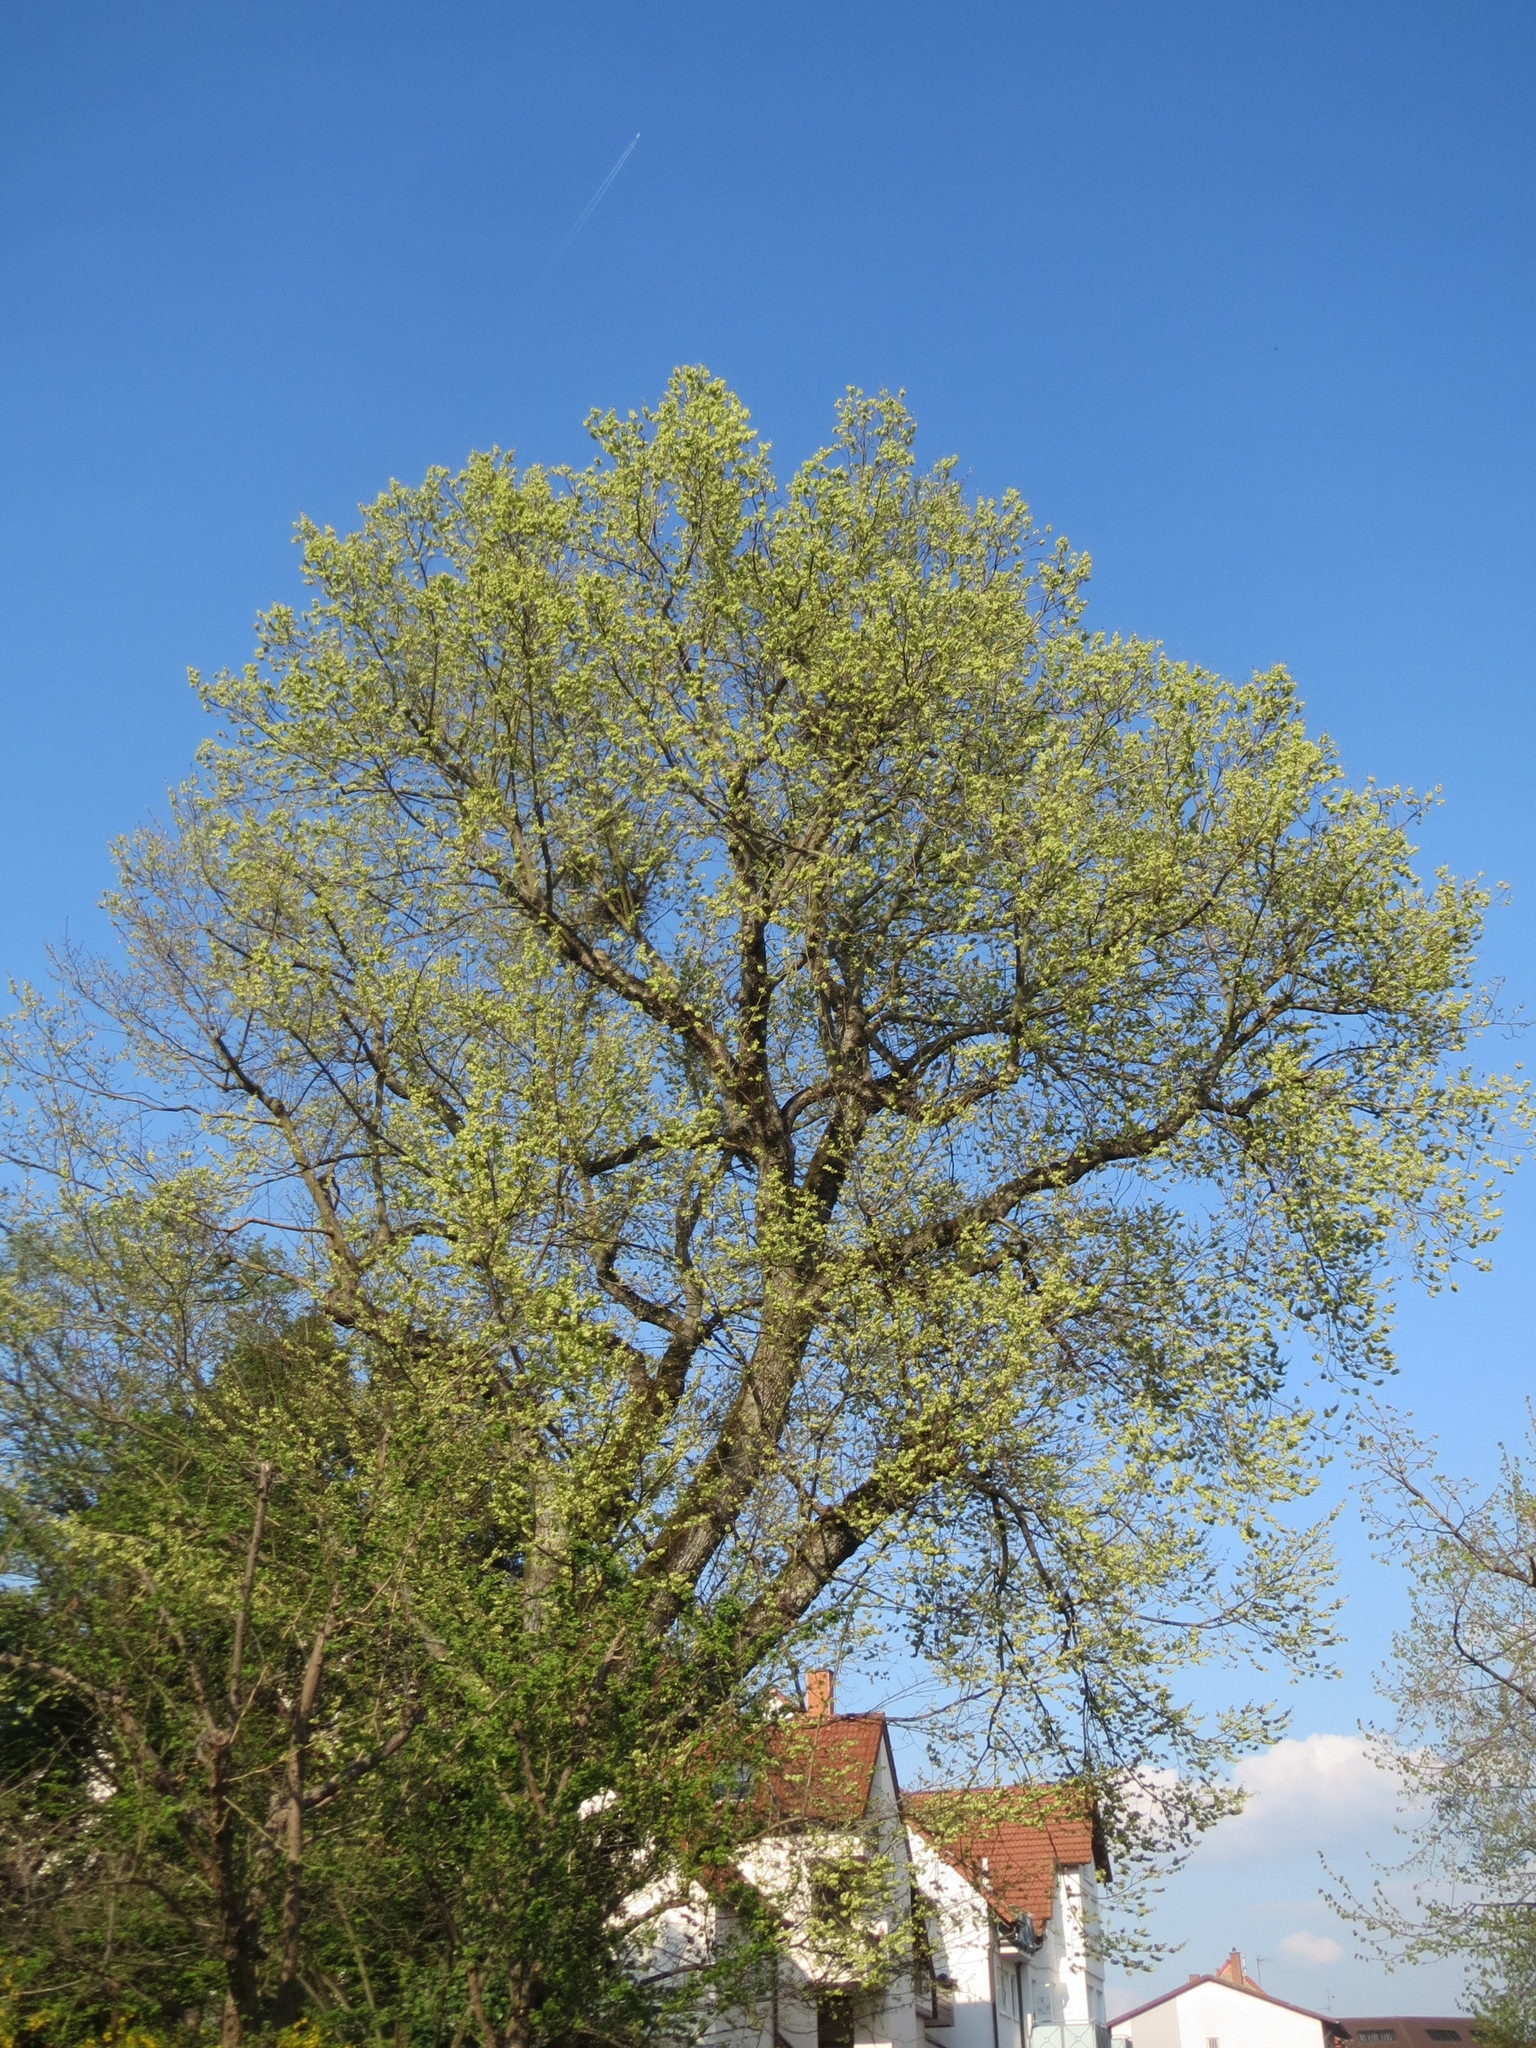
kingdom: Plantae
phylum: Tracheophyta
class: Magnoliopsida
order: Rosales
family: Ulmaceae
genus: Ulmus
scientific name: Ulmus glabra
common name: Wych elm
